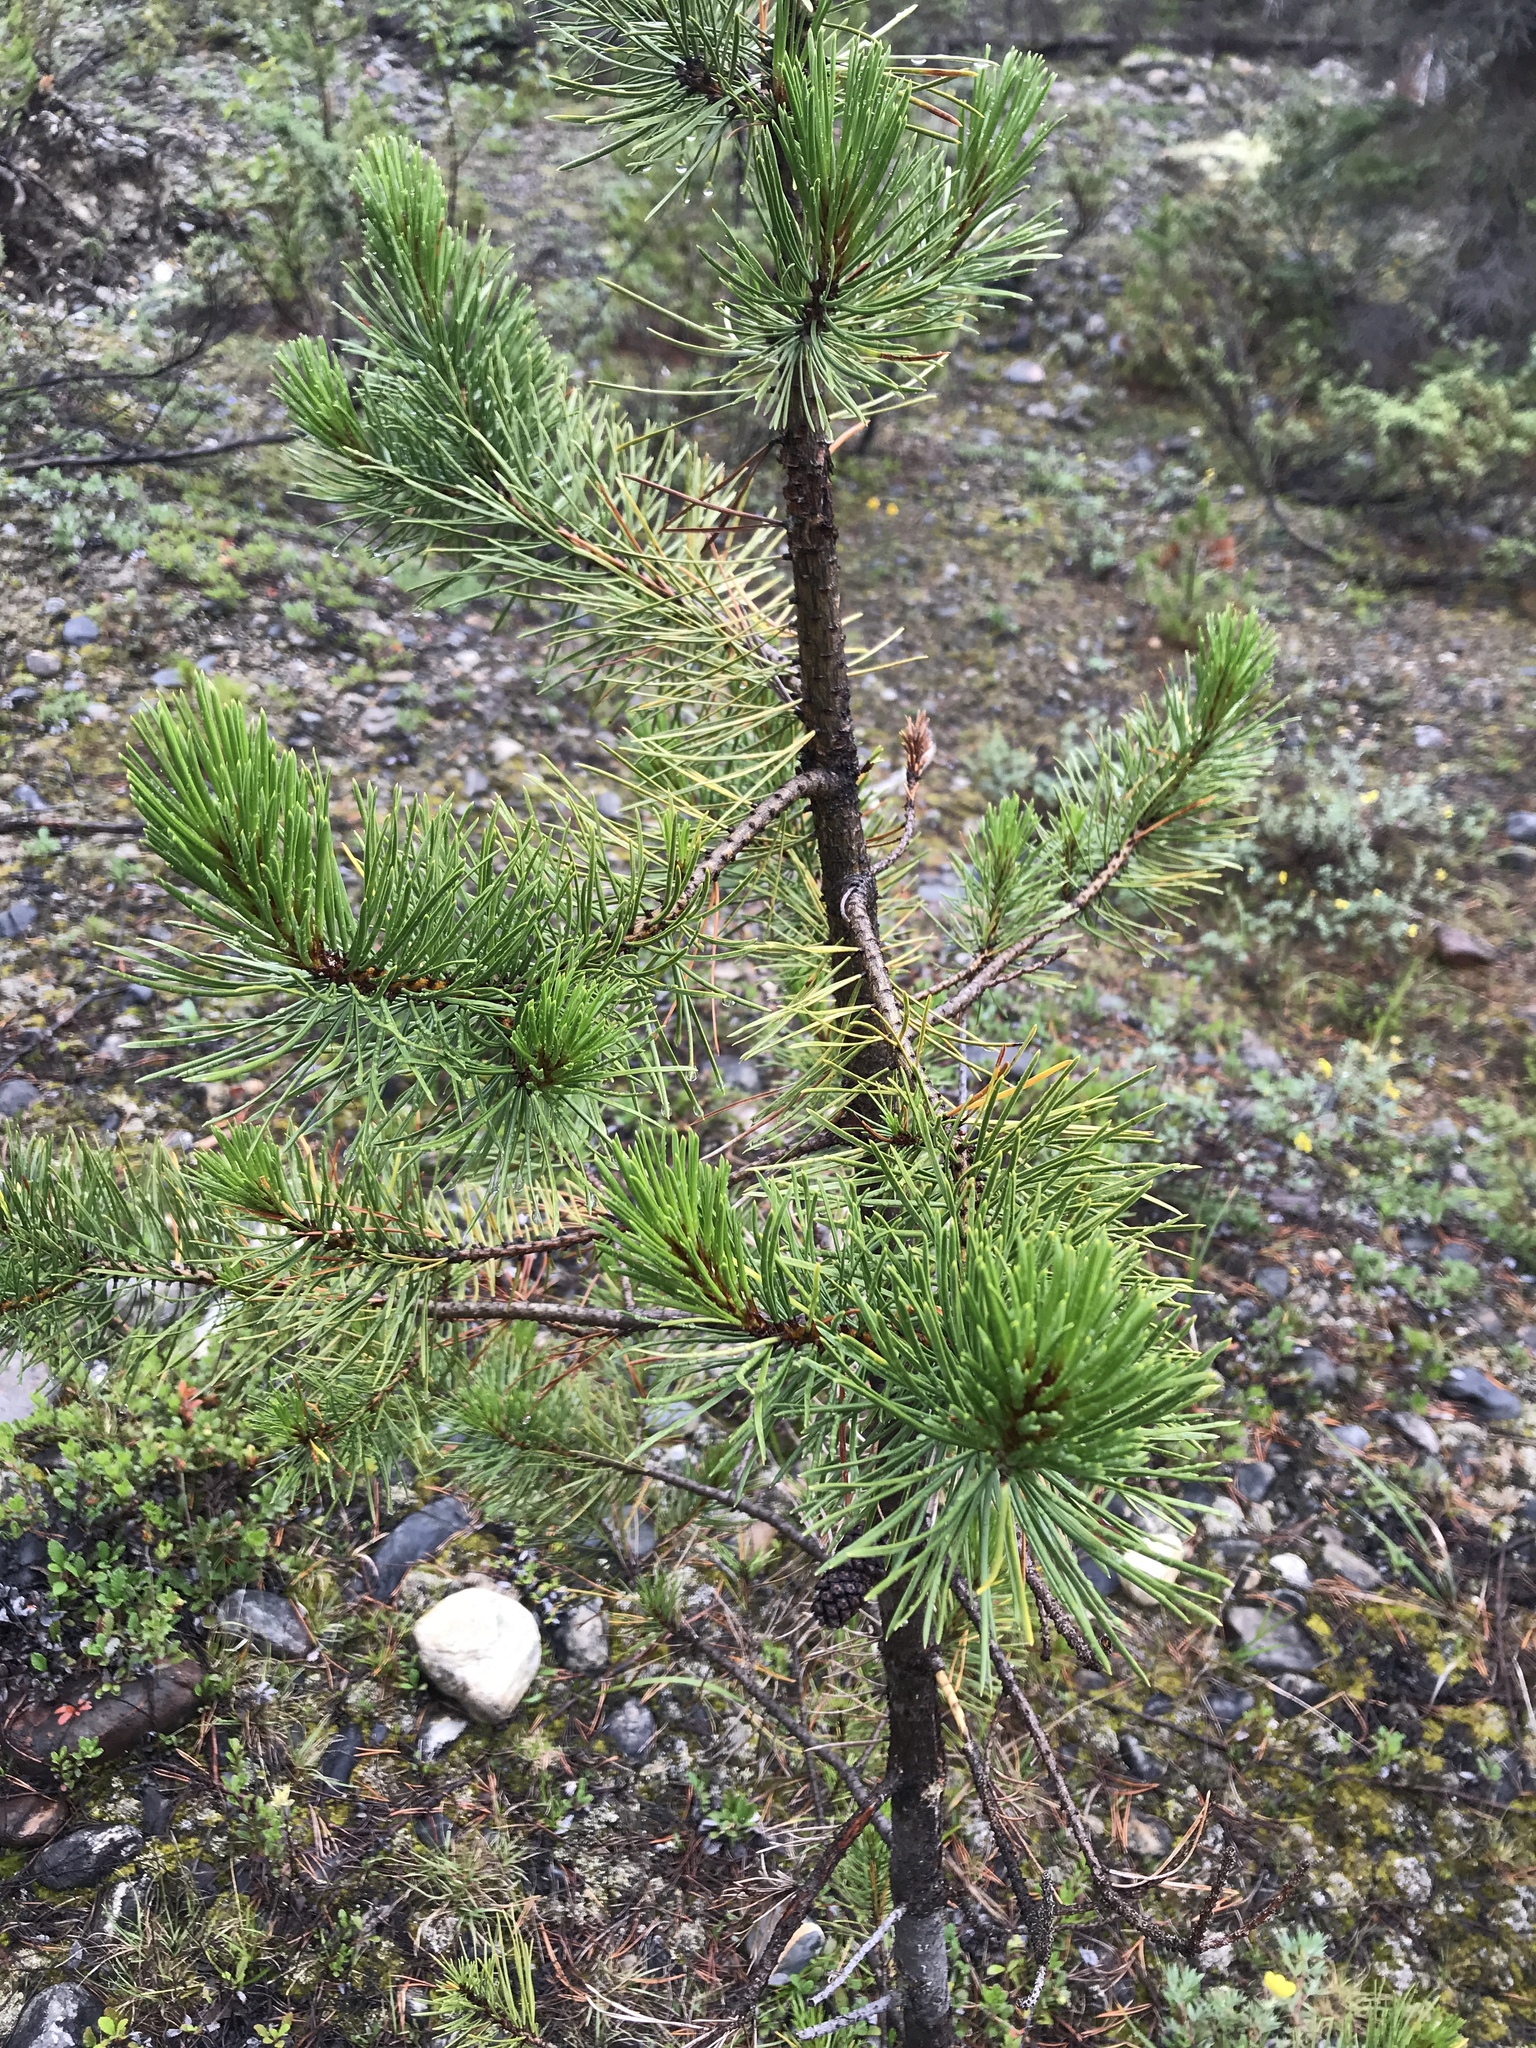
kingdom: Plantae
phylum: Tracheophyta
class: Pinopsida
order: Pinales
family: Pinaceae
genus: Pinus
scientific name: Pinus contorta
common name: Lodgepole pine
